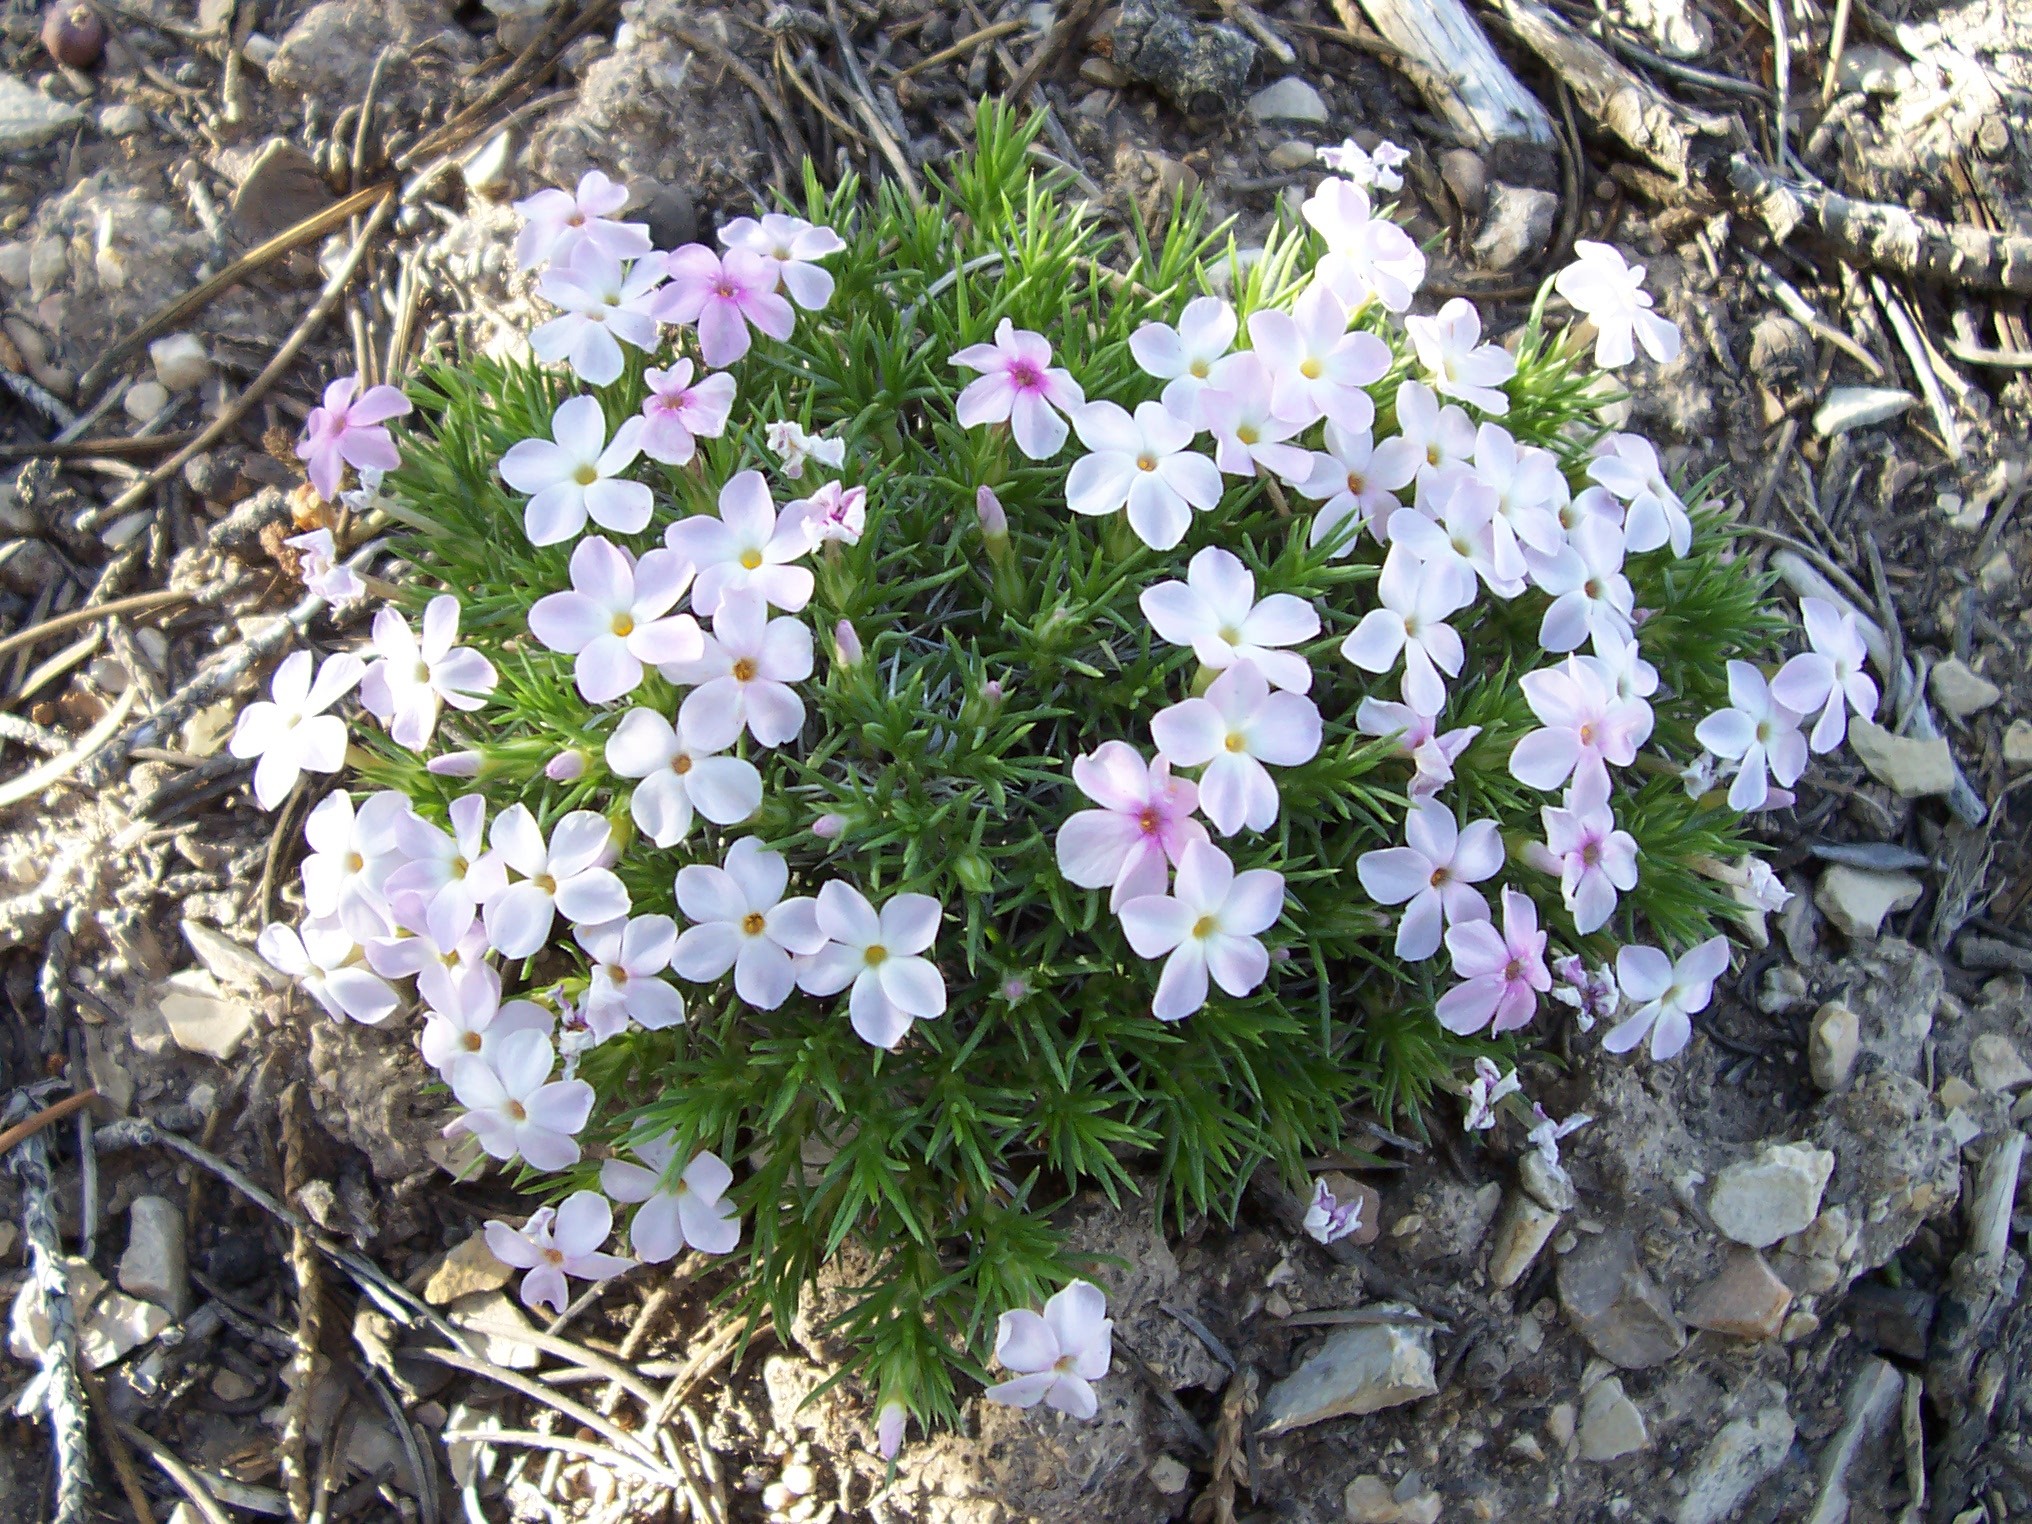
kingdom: Plantae
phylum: Tracheophyta
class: Magnoliopsida
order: Ericales
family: Polemoniaceae
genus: Phlox
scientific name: Phlox austromontana
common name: Desert phlox
